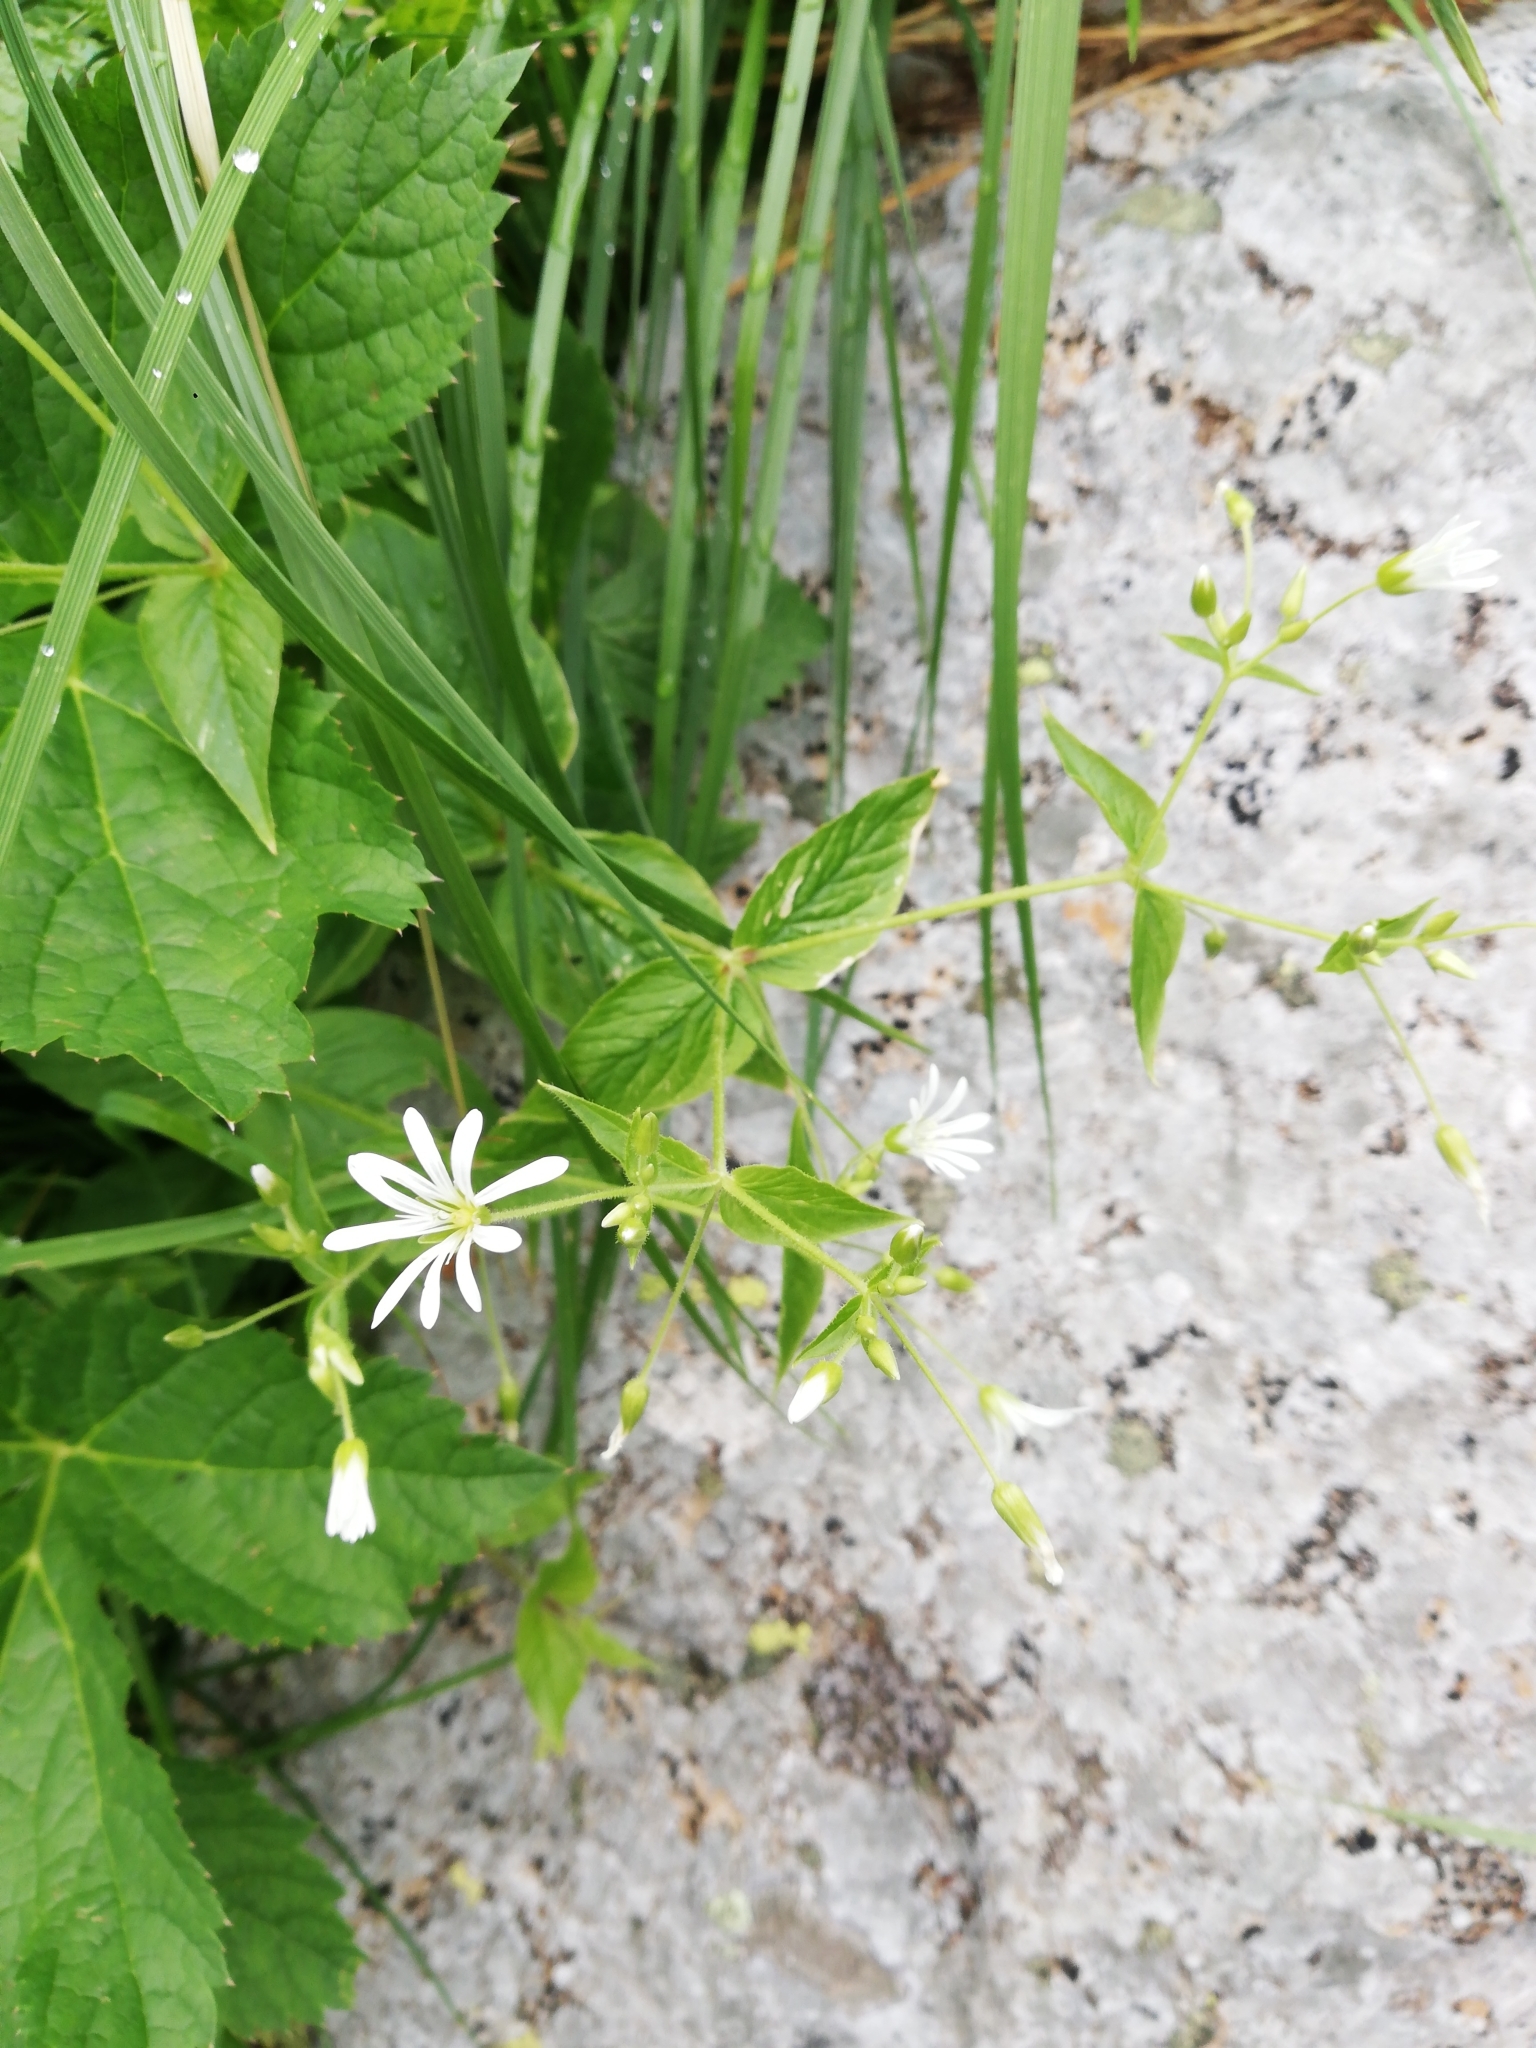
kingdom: Plantae
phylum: Tracheophyta
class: Magnoliopsida
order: Caryophyllales
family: Caryophyllaceae
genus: Stellaria
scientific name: Stellaria nemorum
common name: Wood stitchwort
